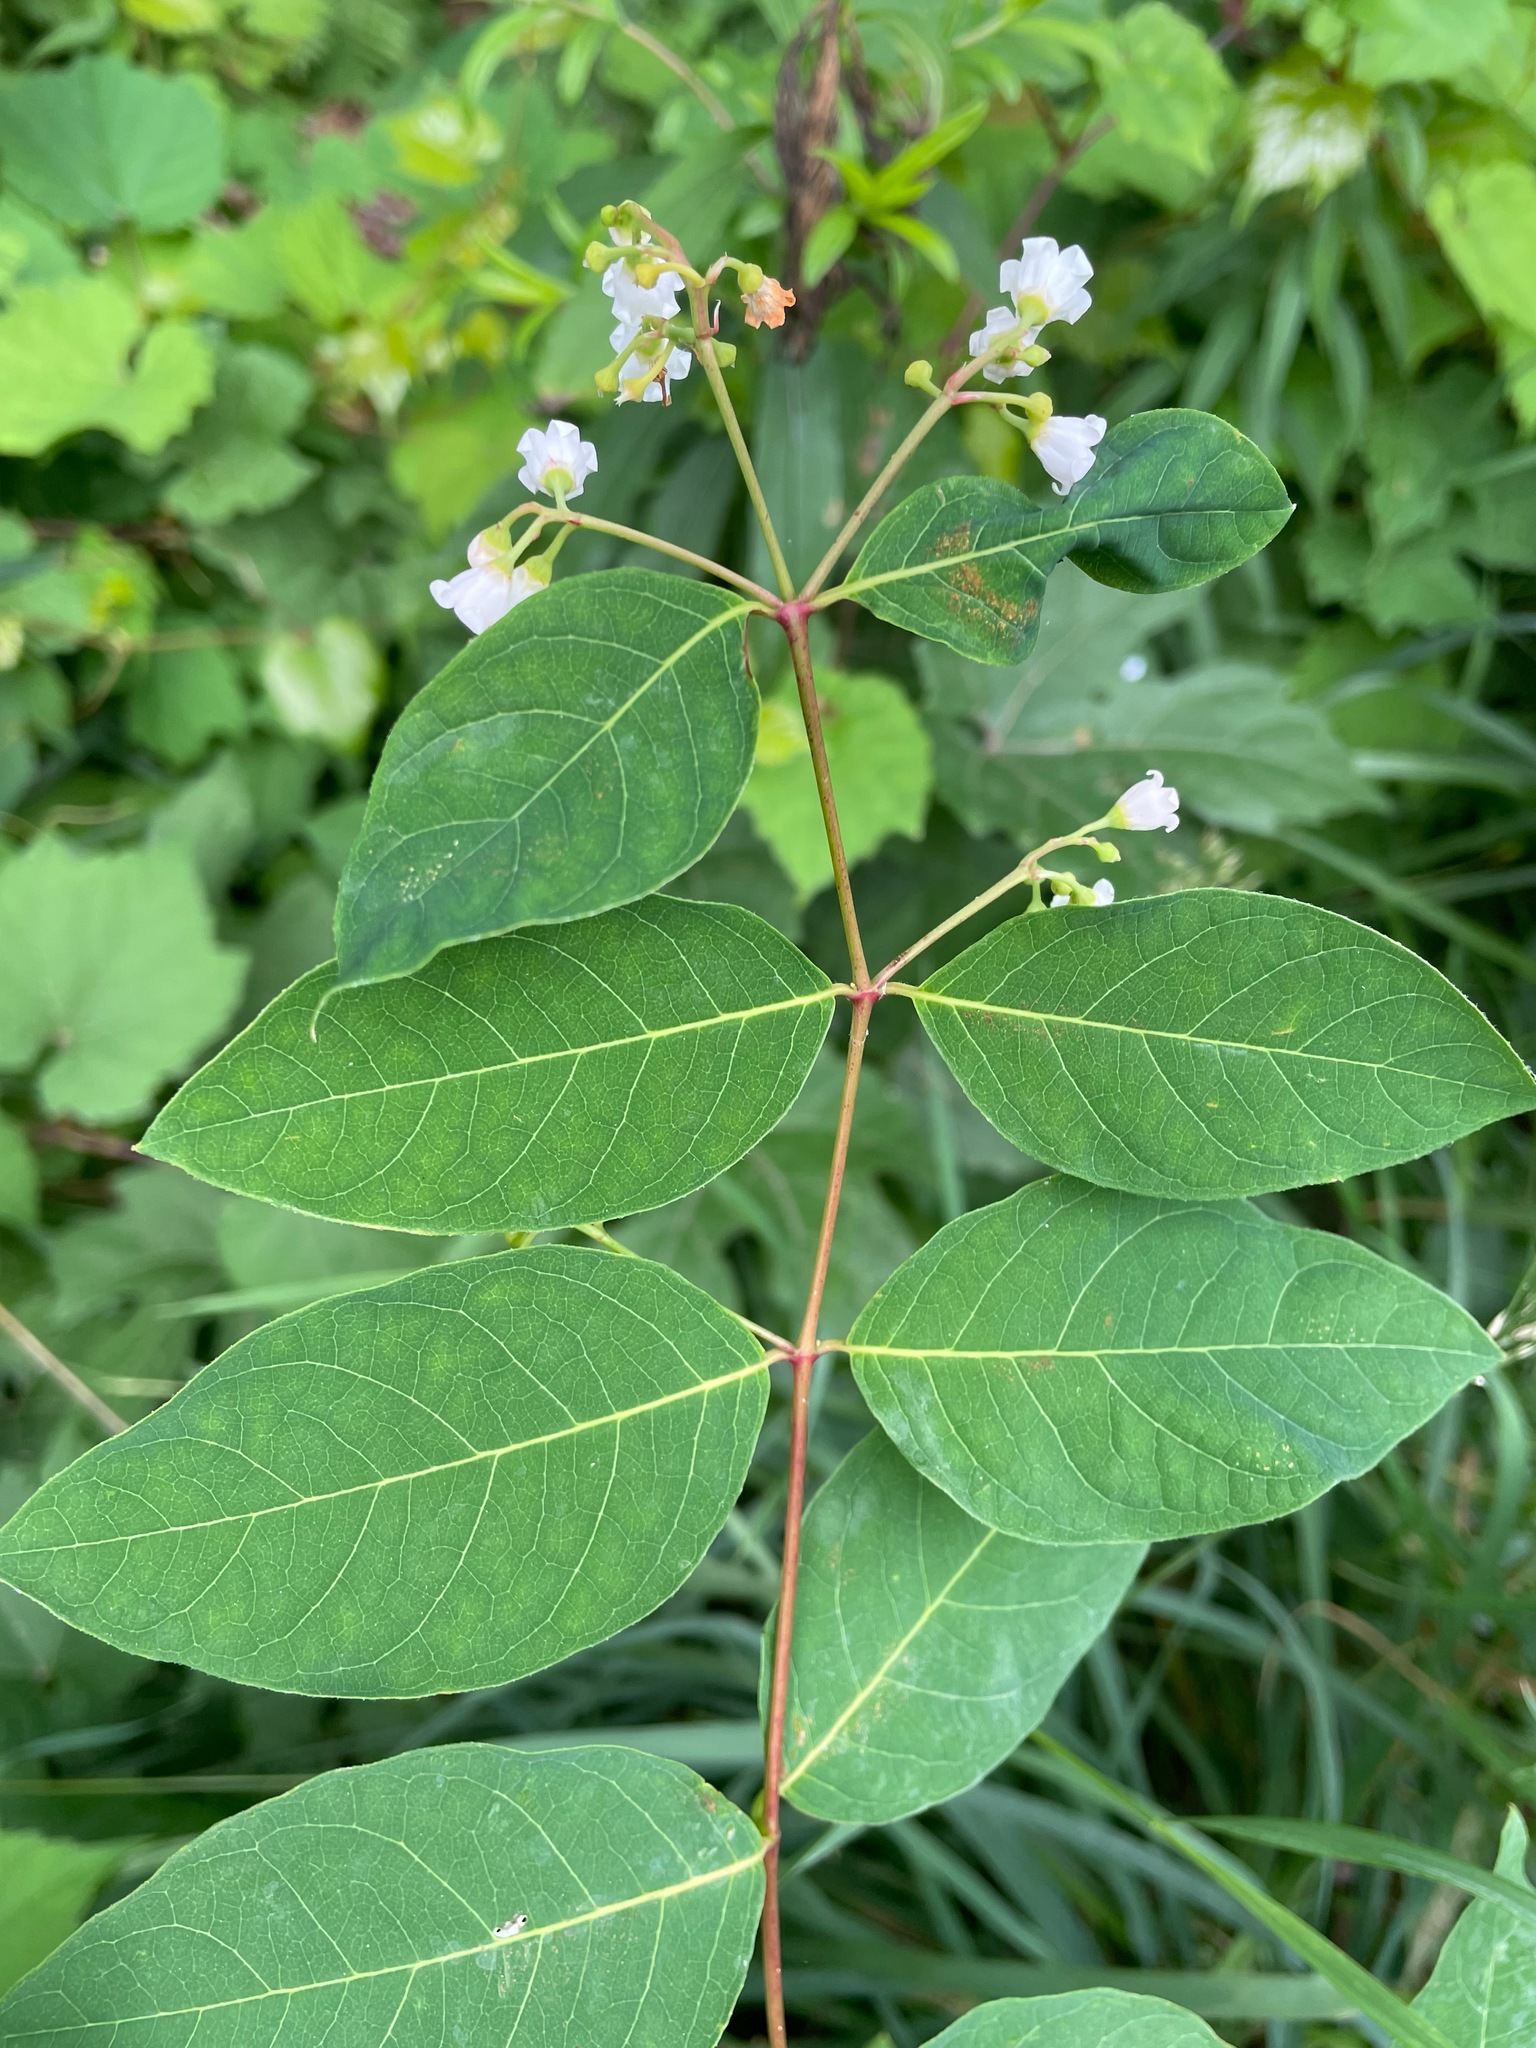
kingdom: Plantae
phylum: Tracheophyta
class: Magnoliopsida
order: Gentianales
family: Apocynaceae
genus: Apocynum
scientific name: Apocynum androsaemifolium
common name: Spreading dogbane
